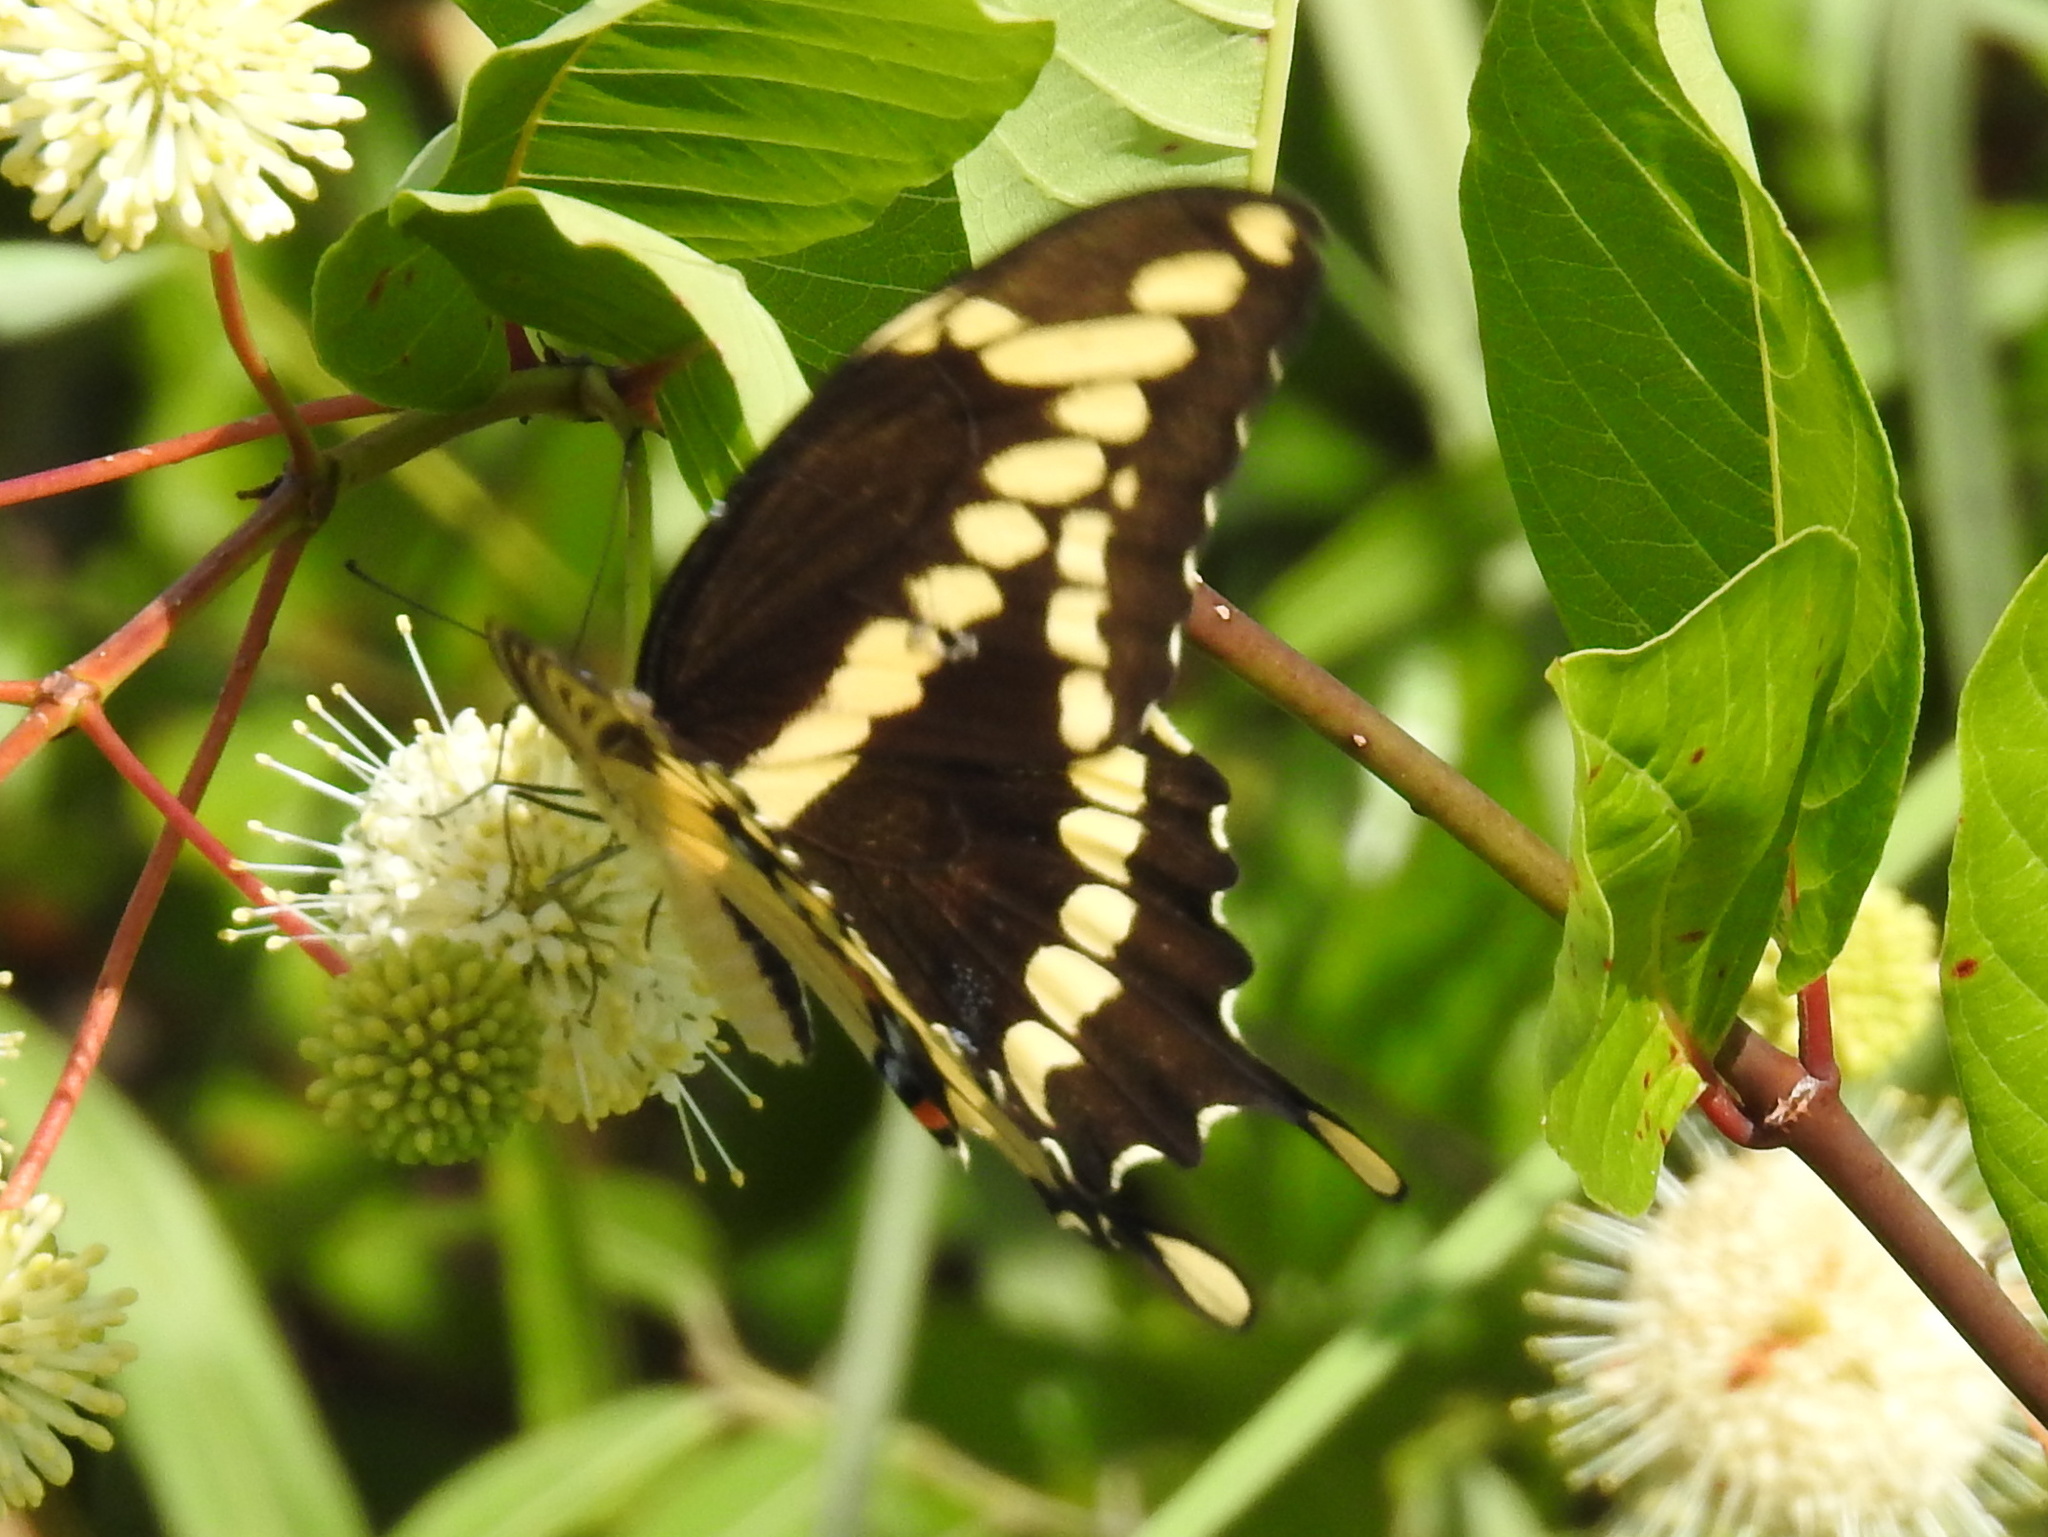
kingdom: Animalia
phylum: Arthropoda
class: Insecta
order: Lepidoptera
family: Papilionidae
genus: Papilio
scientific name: Papilio cresphontes
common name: Giant swallowtail
